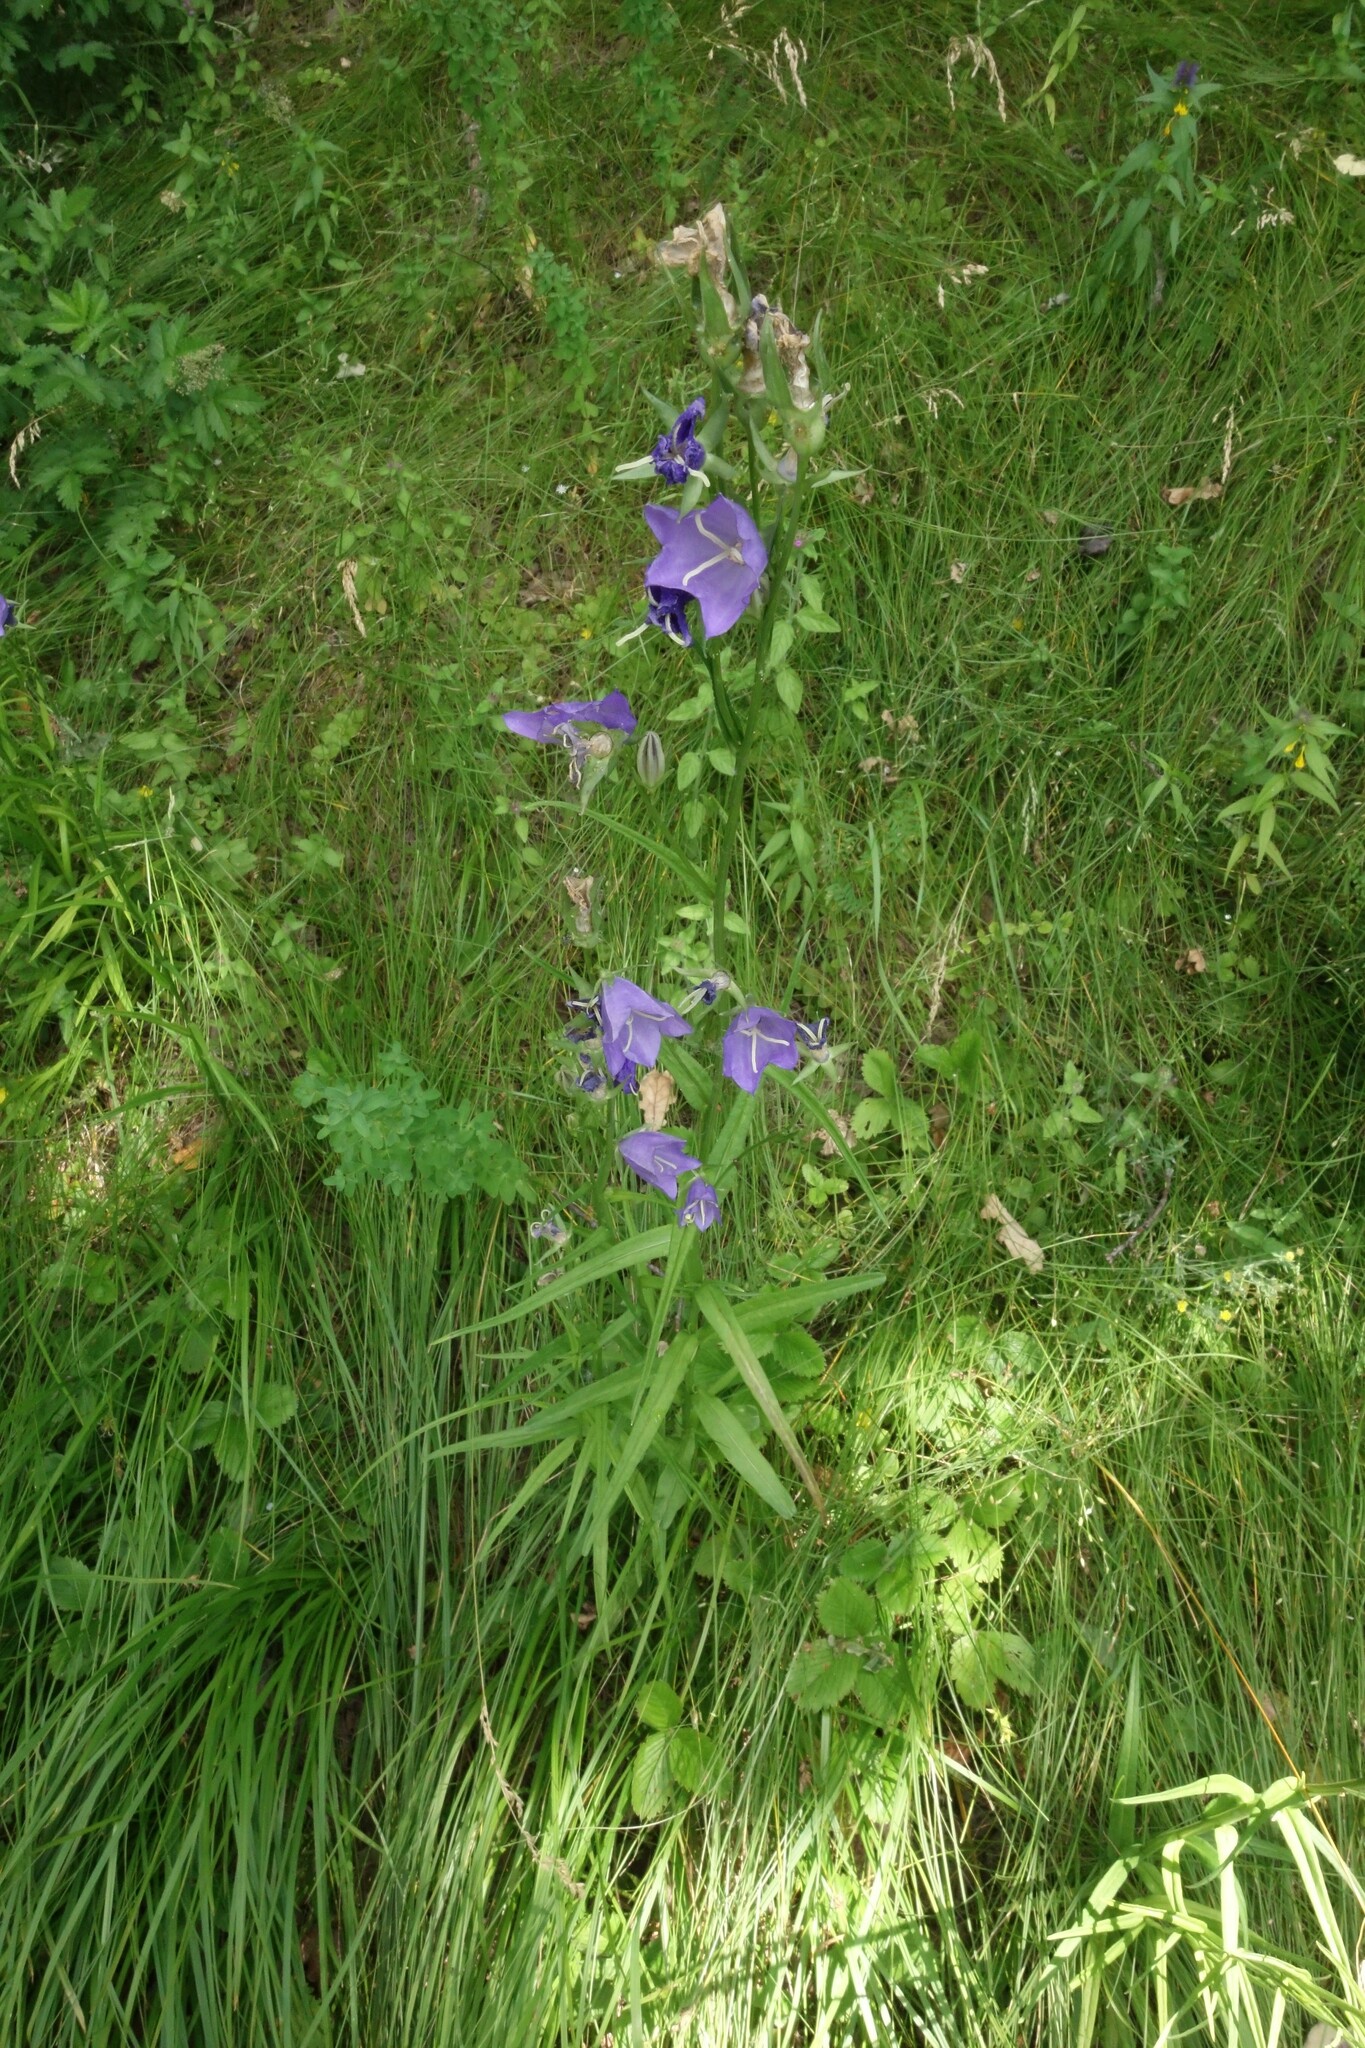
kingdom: Plantae
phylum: Tracheophyta
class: Magnoliopsida
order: Asterales
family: Campanulaceae
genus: Campanula
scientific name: Campanula persicifolia
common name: Peach-leaved bellflower
